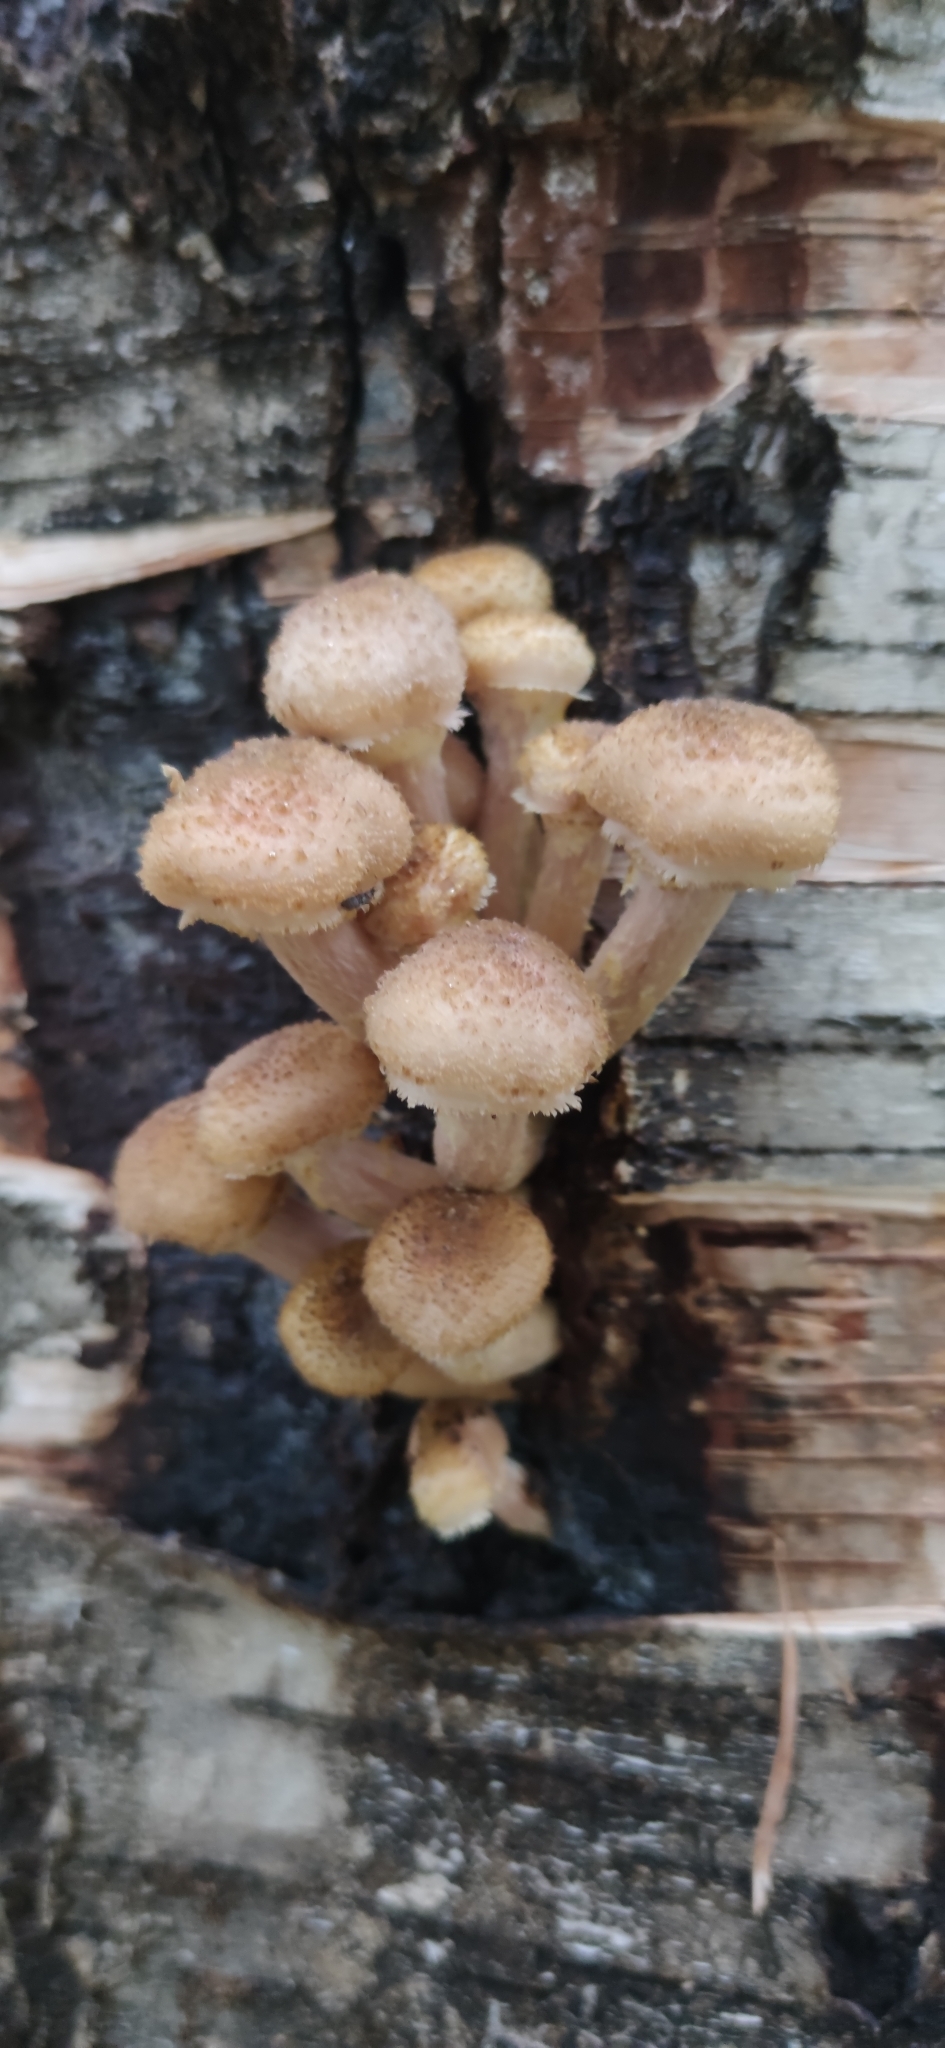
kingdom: Fungi
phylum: Basidiomycota
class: Agaricomycetes
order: Agaricales
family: Physalacriaceae
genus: Armillaria
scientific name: Armillaria borealis
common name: Northern honey fungus
